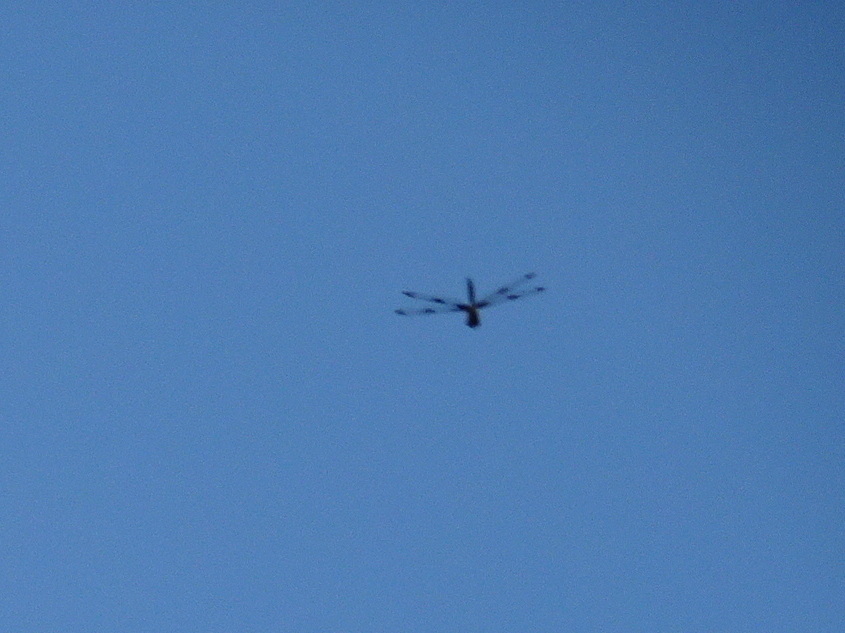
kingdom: Animalia
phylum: Arthropoda
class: Insecta
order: Odonata
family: Corduliidae
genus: Epitheca
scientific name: Epitheca princeps
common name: Prince baskettail
